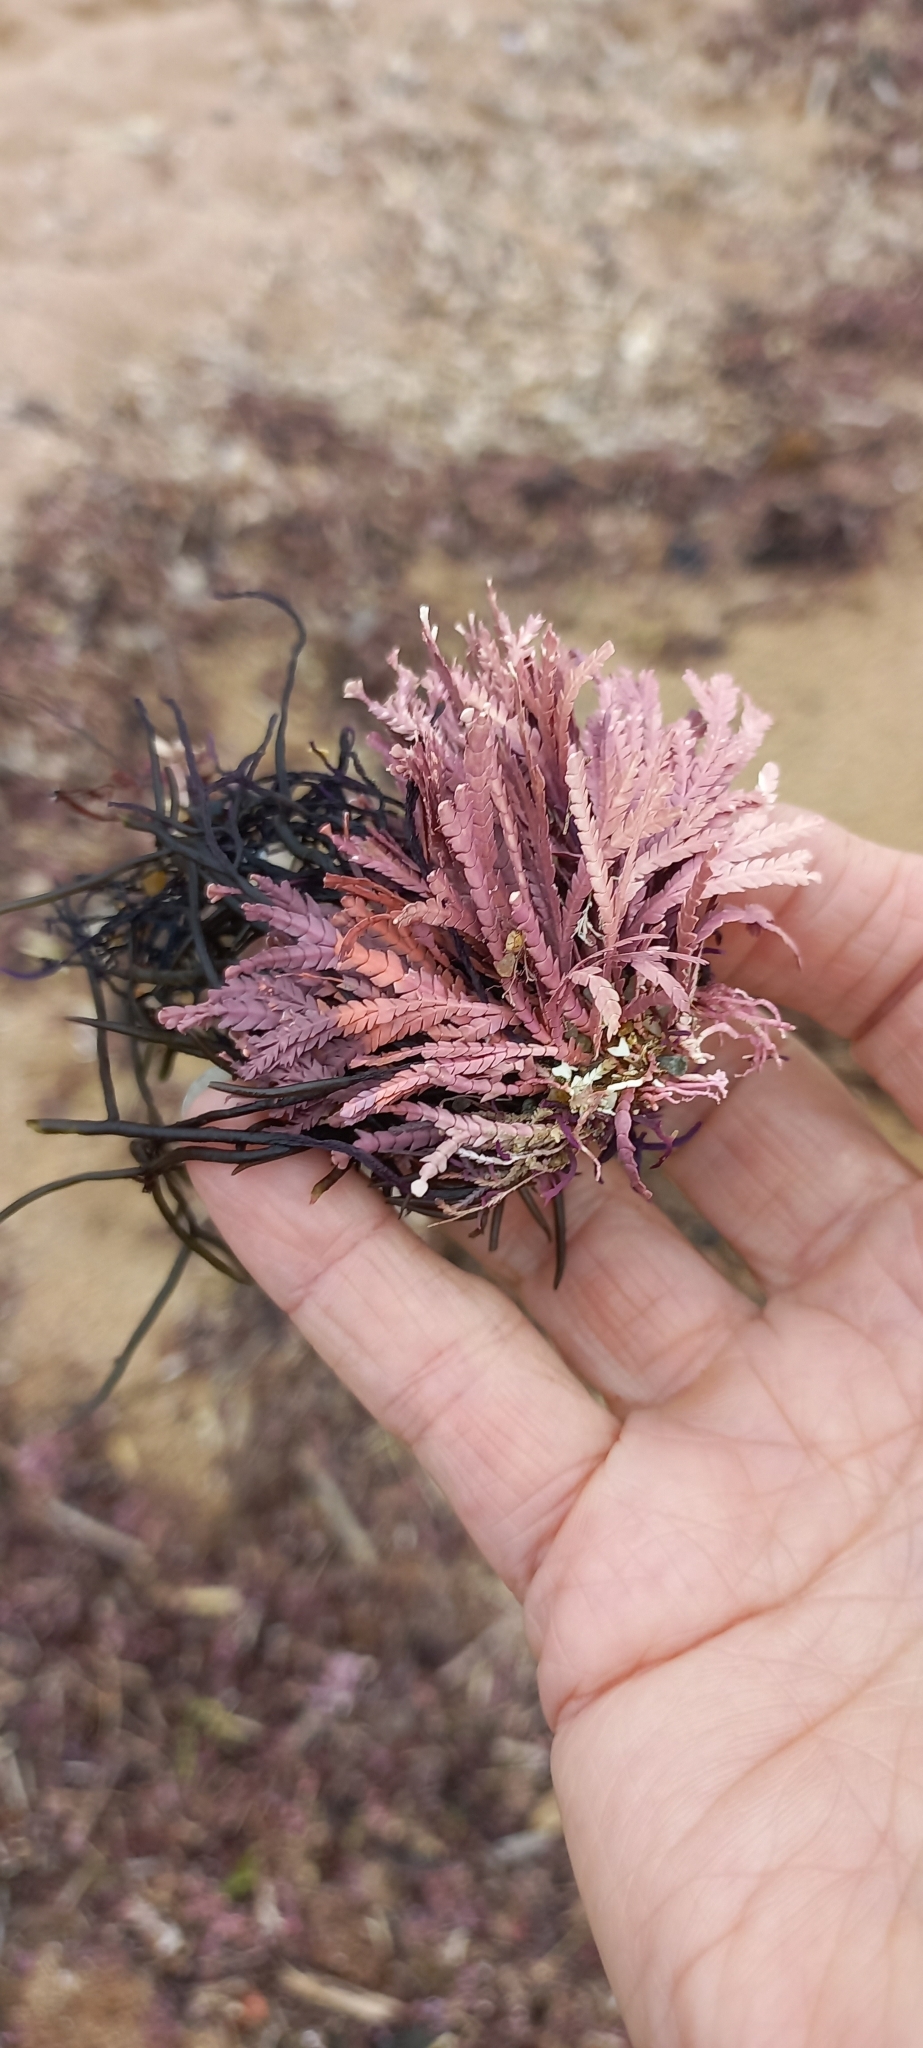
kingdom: Plantae
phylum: Rhodophyta
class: Florideophyceae
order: Corallinales
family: Corallinaceae
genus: Jania
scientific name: Jania cultrata
